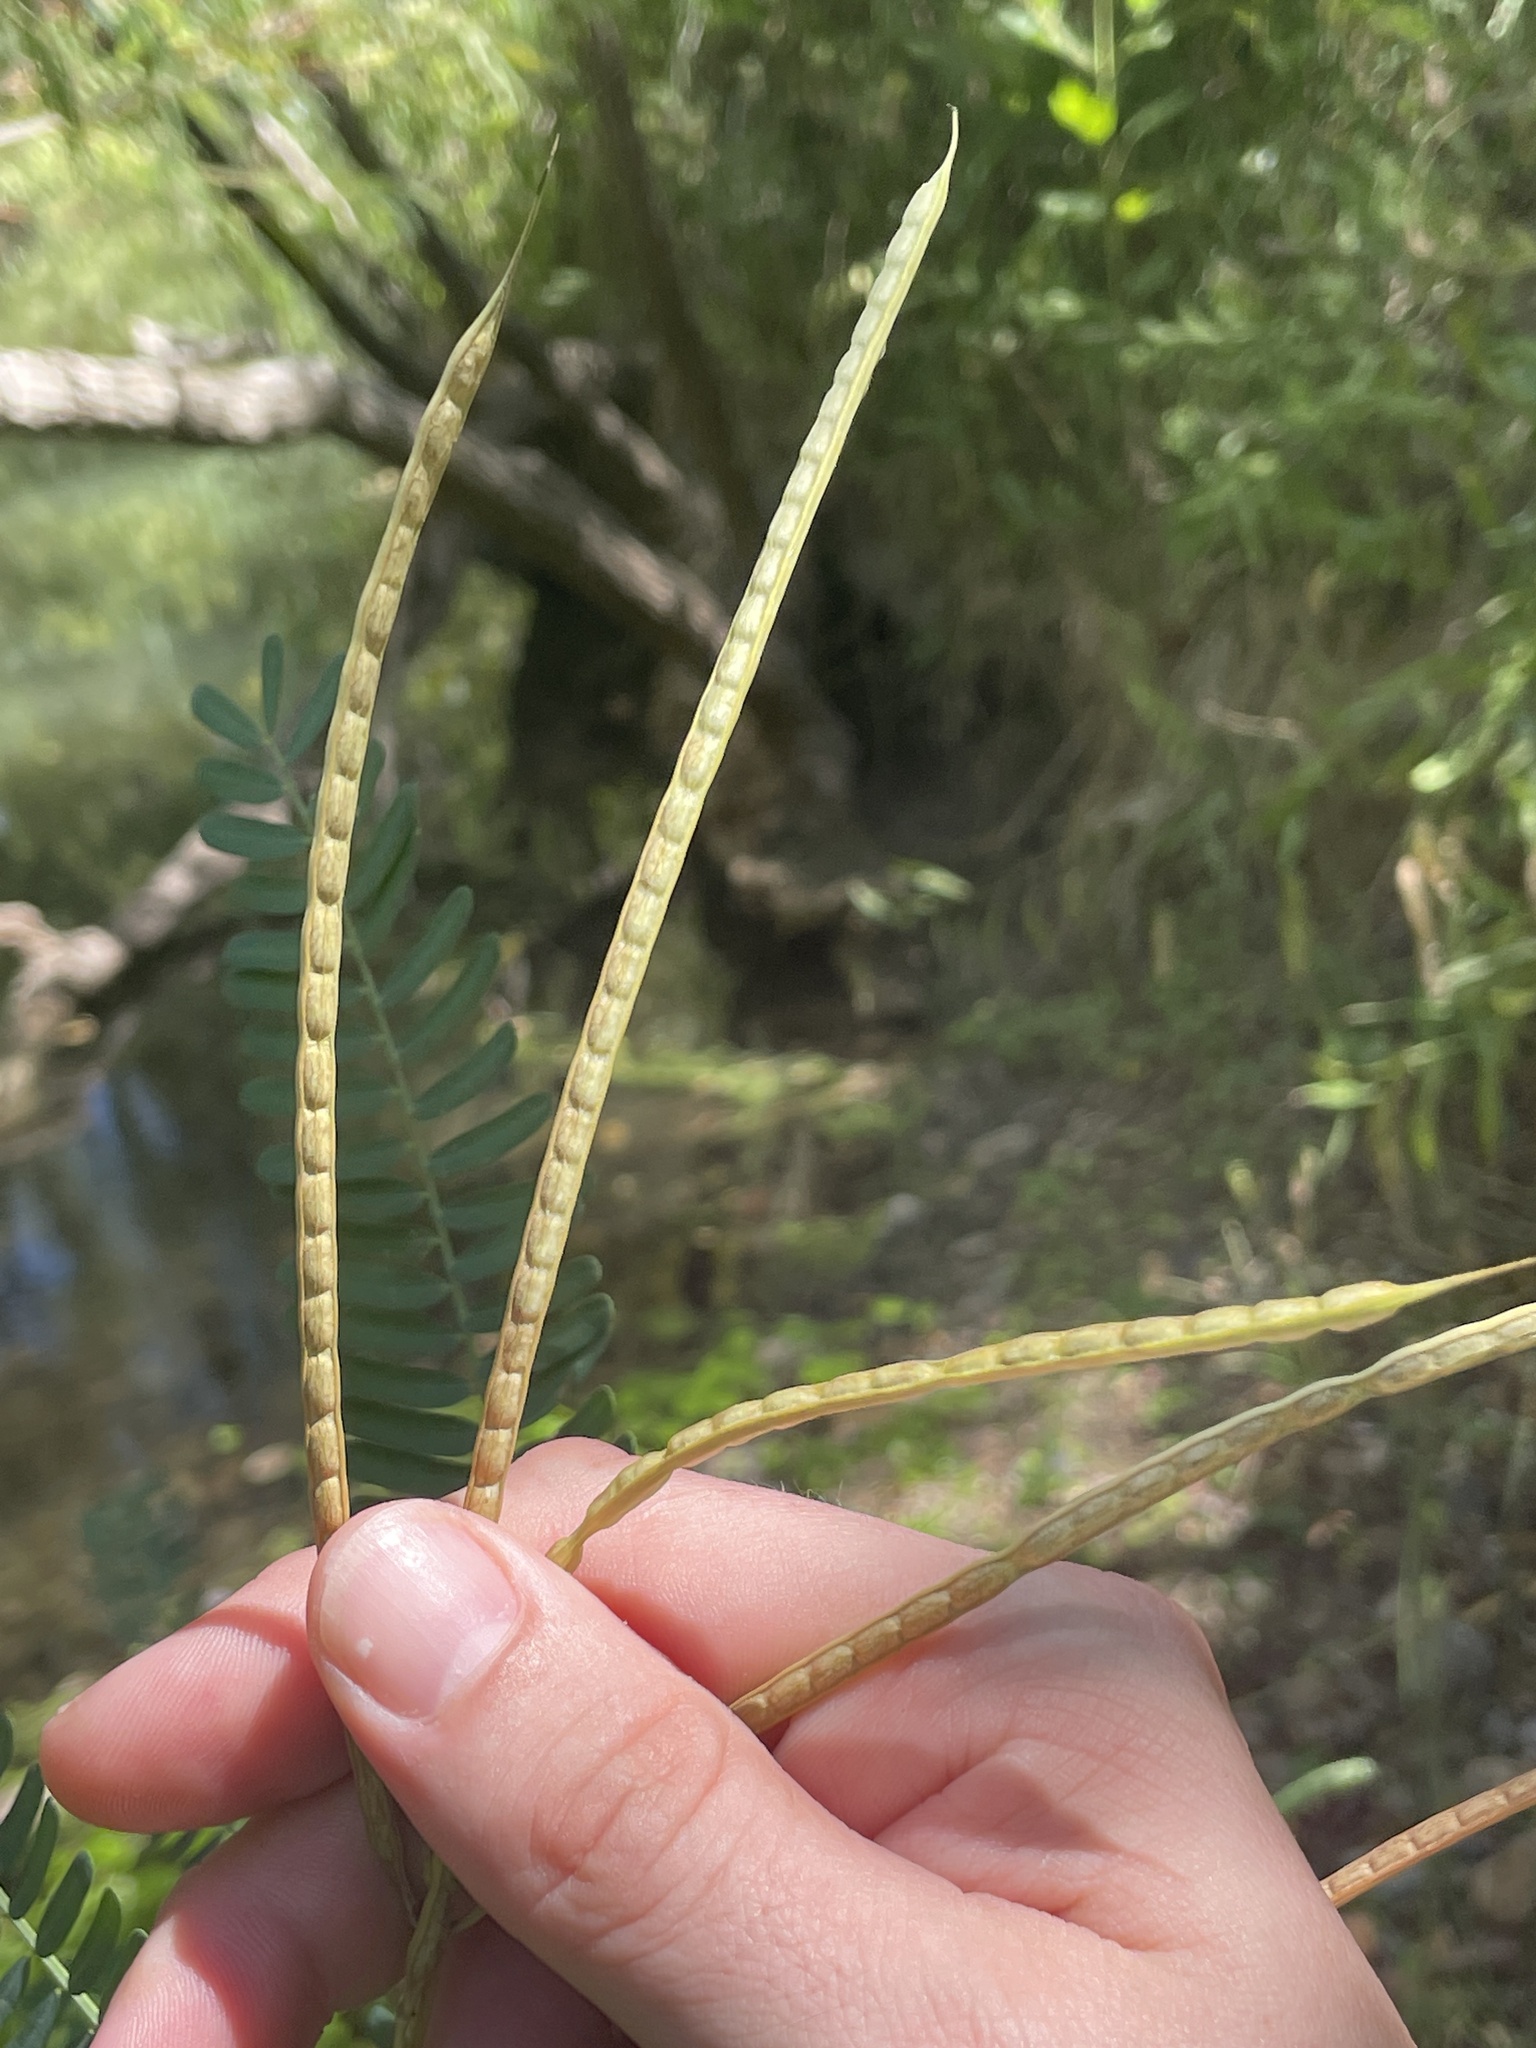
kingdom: Plantae
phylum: Tracheophyta
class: Magnoliopsida
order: Fabales
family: Fabaceae
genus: Sesbania
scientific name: Sesbania herbacea
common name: Bigpod sesbania
